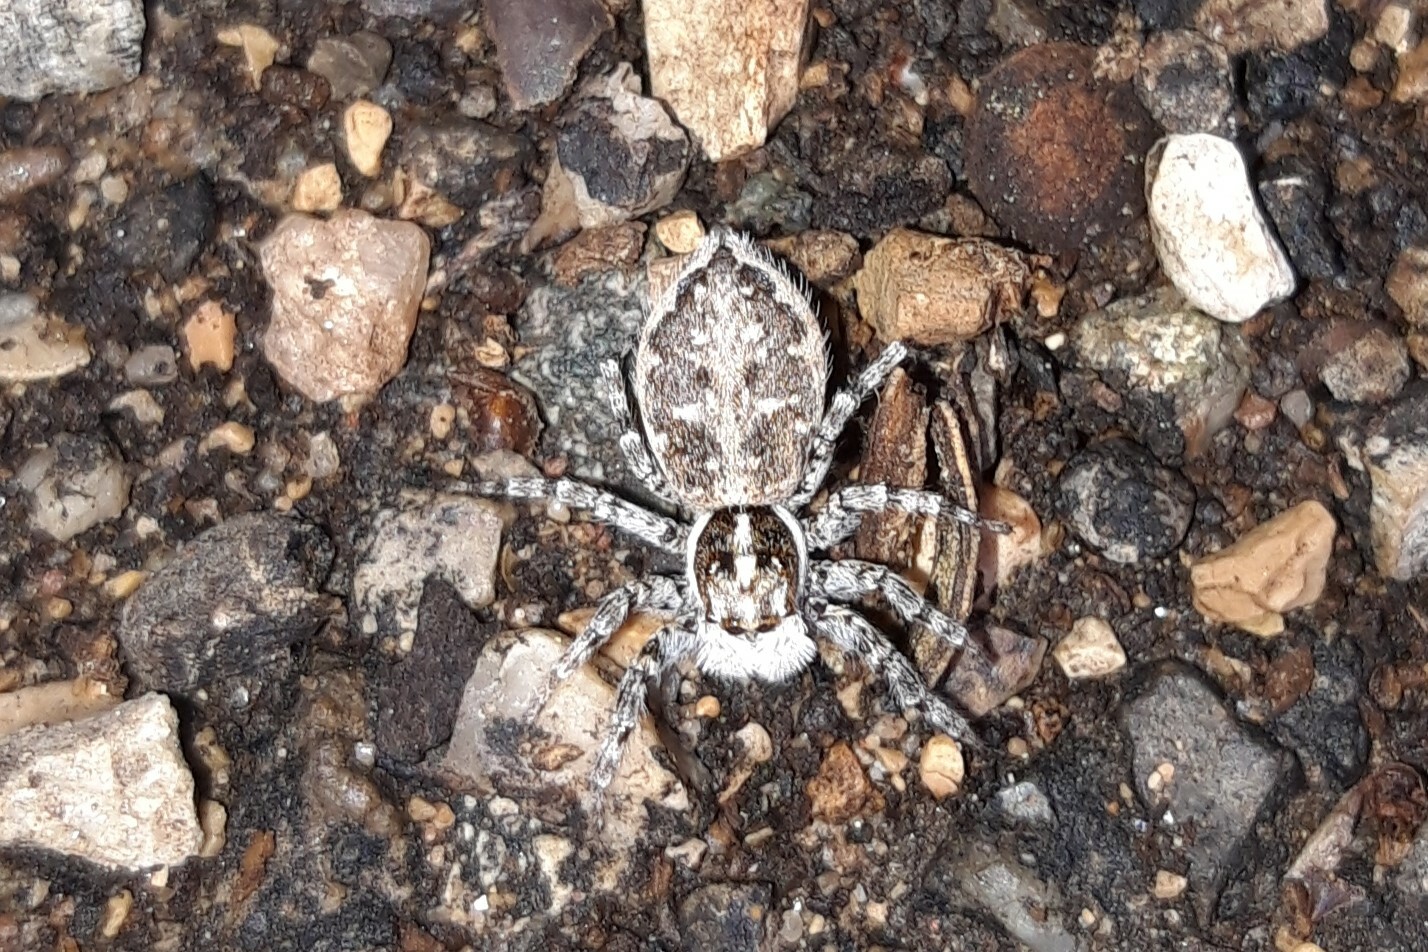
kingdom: Animalia
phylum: Arthropoda
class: Arachnida
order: Araneae
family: Salticidae
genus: Menemerus
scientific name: Menemerus semilimbatus
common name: Jumping spider
